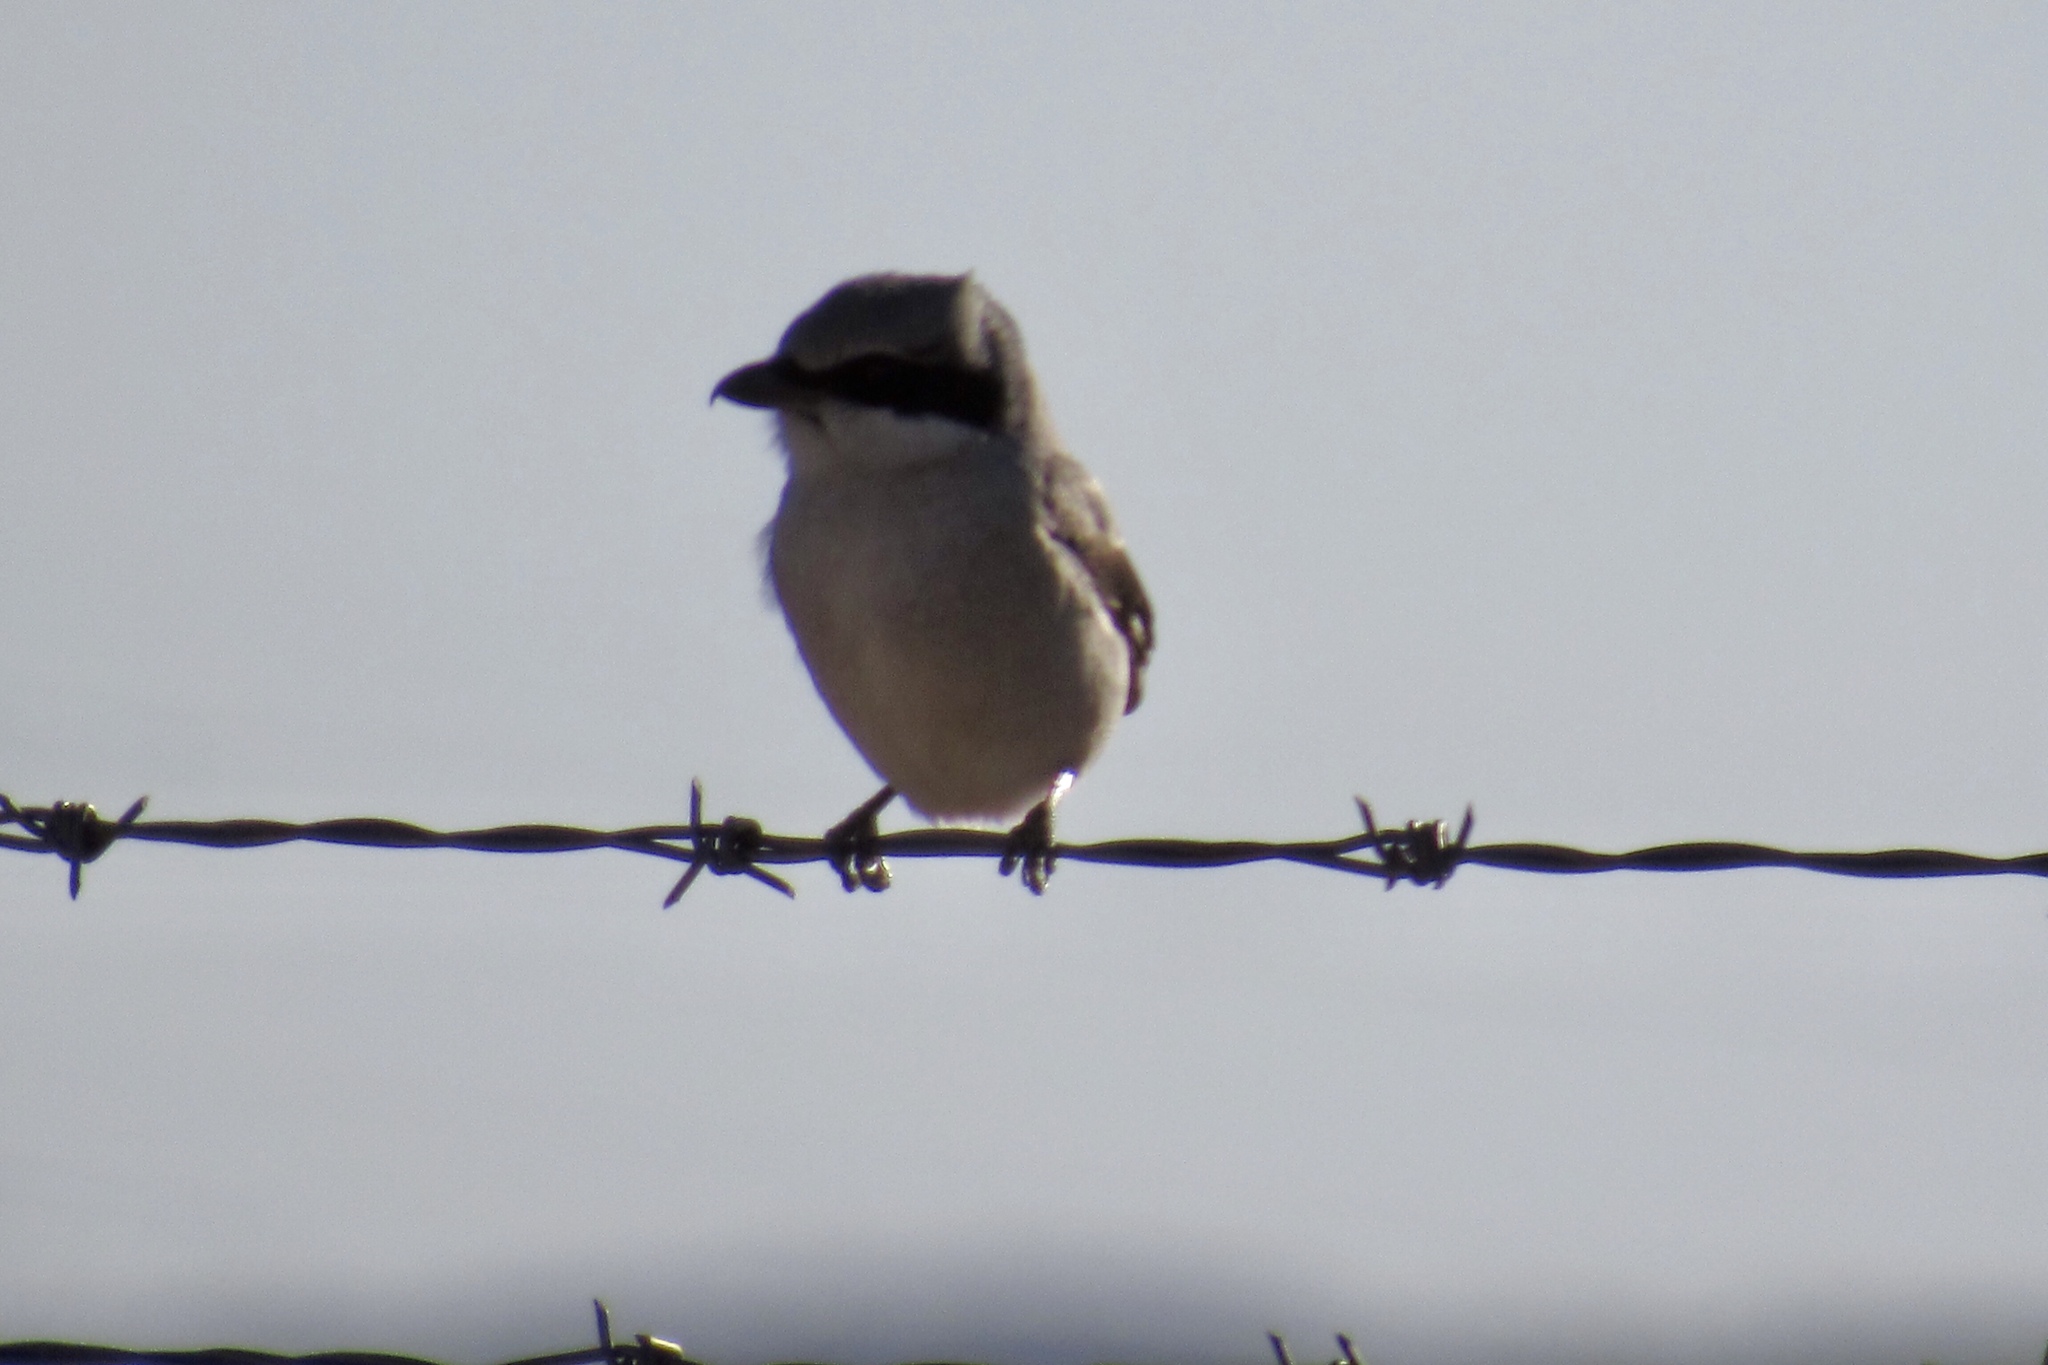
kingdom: Animalia
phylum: Chordata
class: Aves
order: Passeriformes
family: Laniidae
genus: Lanius
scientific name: Lanius ludovicianus
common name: Loggerhead shrike
